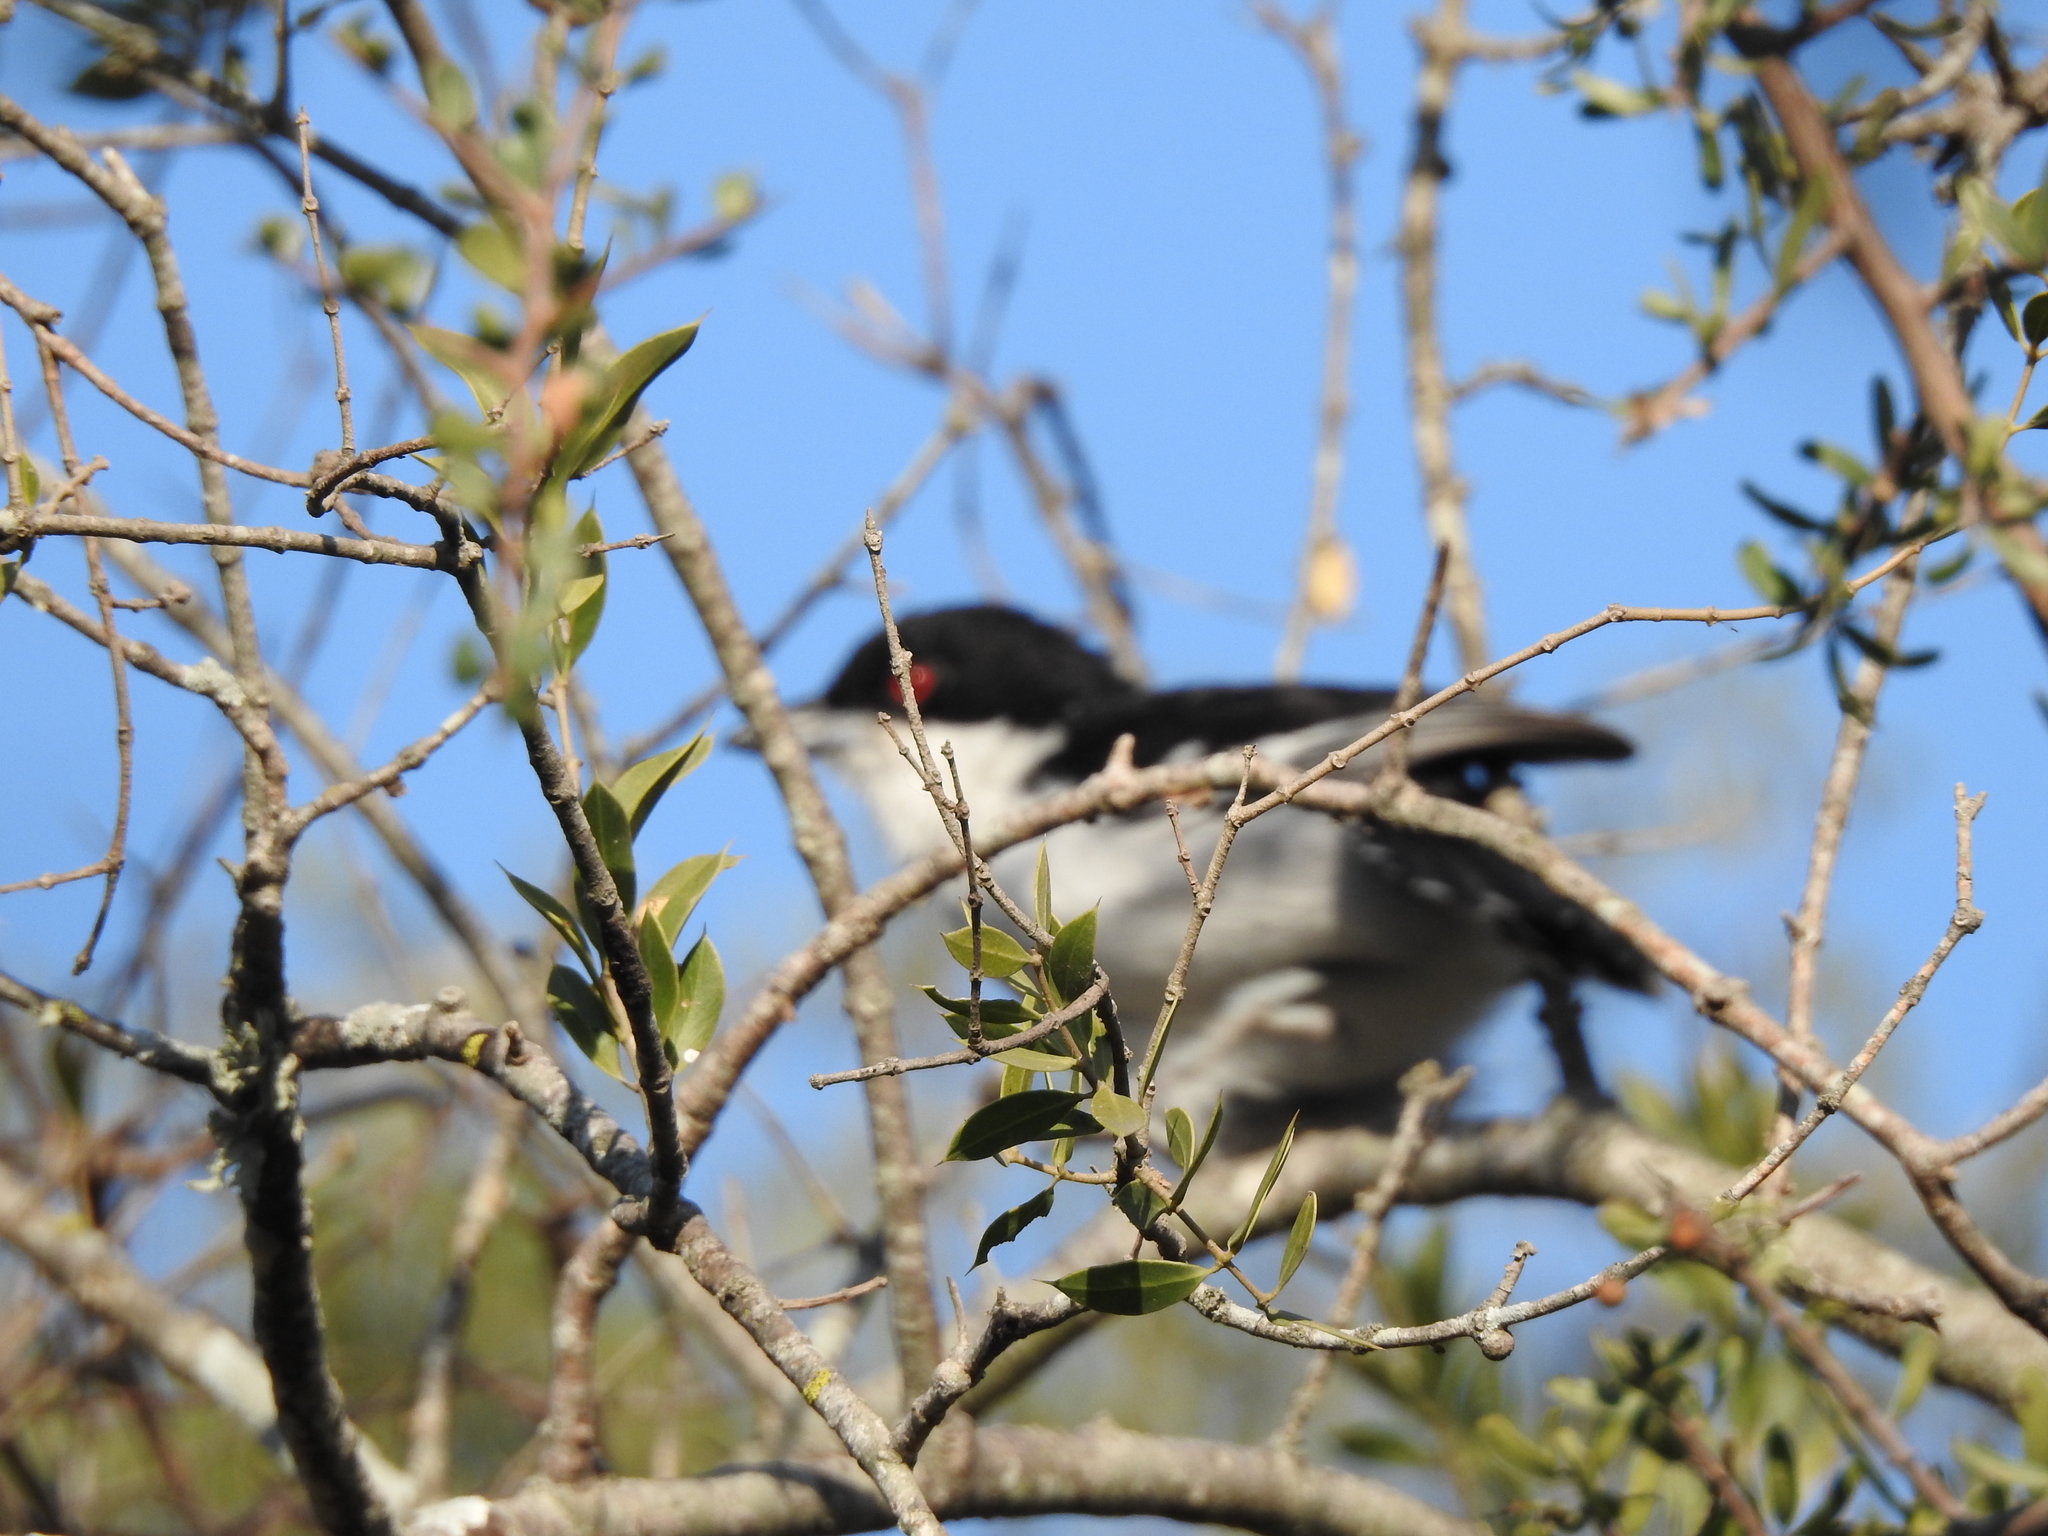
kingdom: Animalia
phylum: Chordata
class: Aves
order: Passeriformes
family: Thamnophilidae
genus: Taraba
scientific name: Taraba major
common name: Great antshrike
